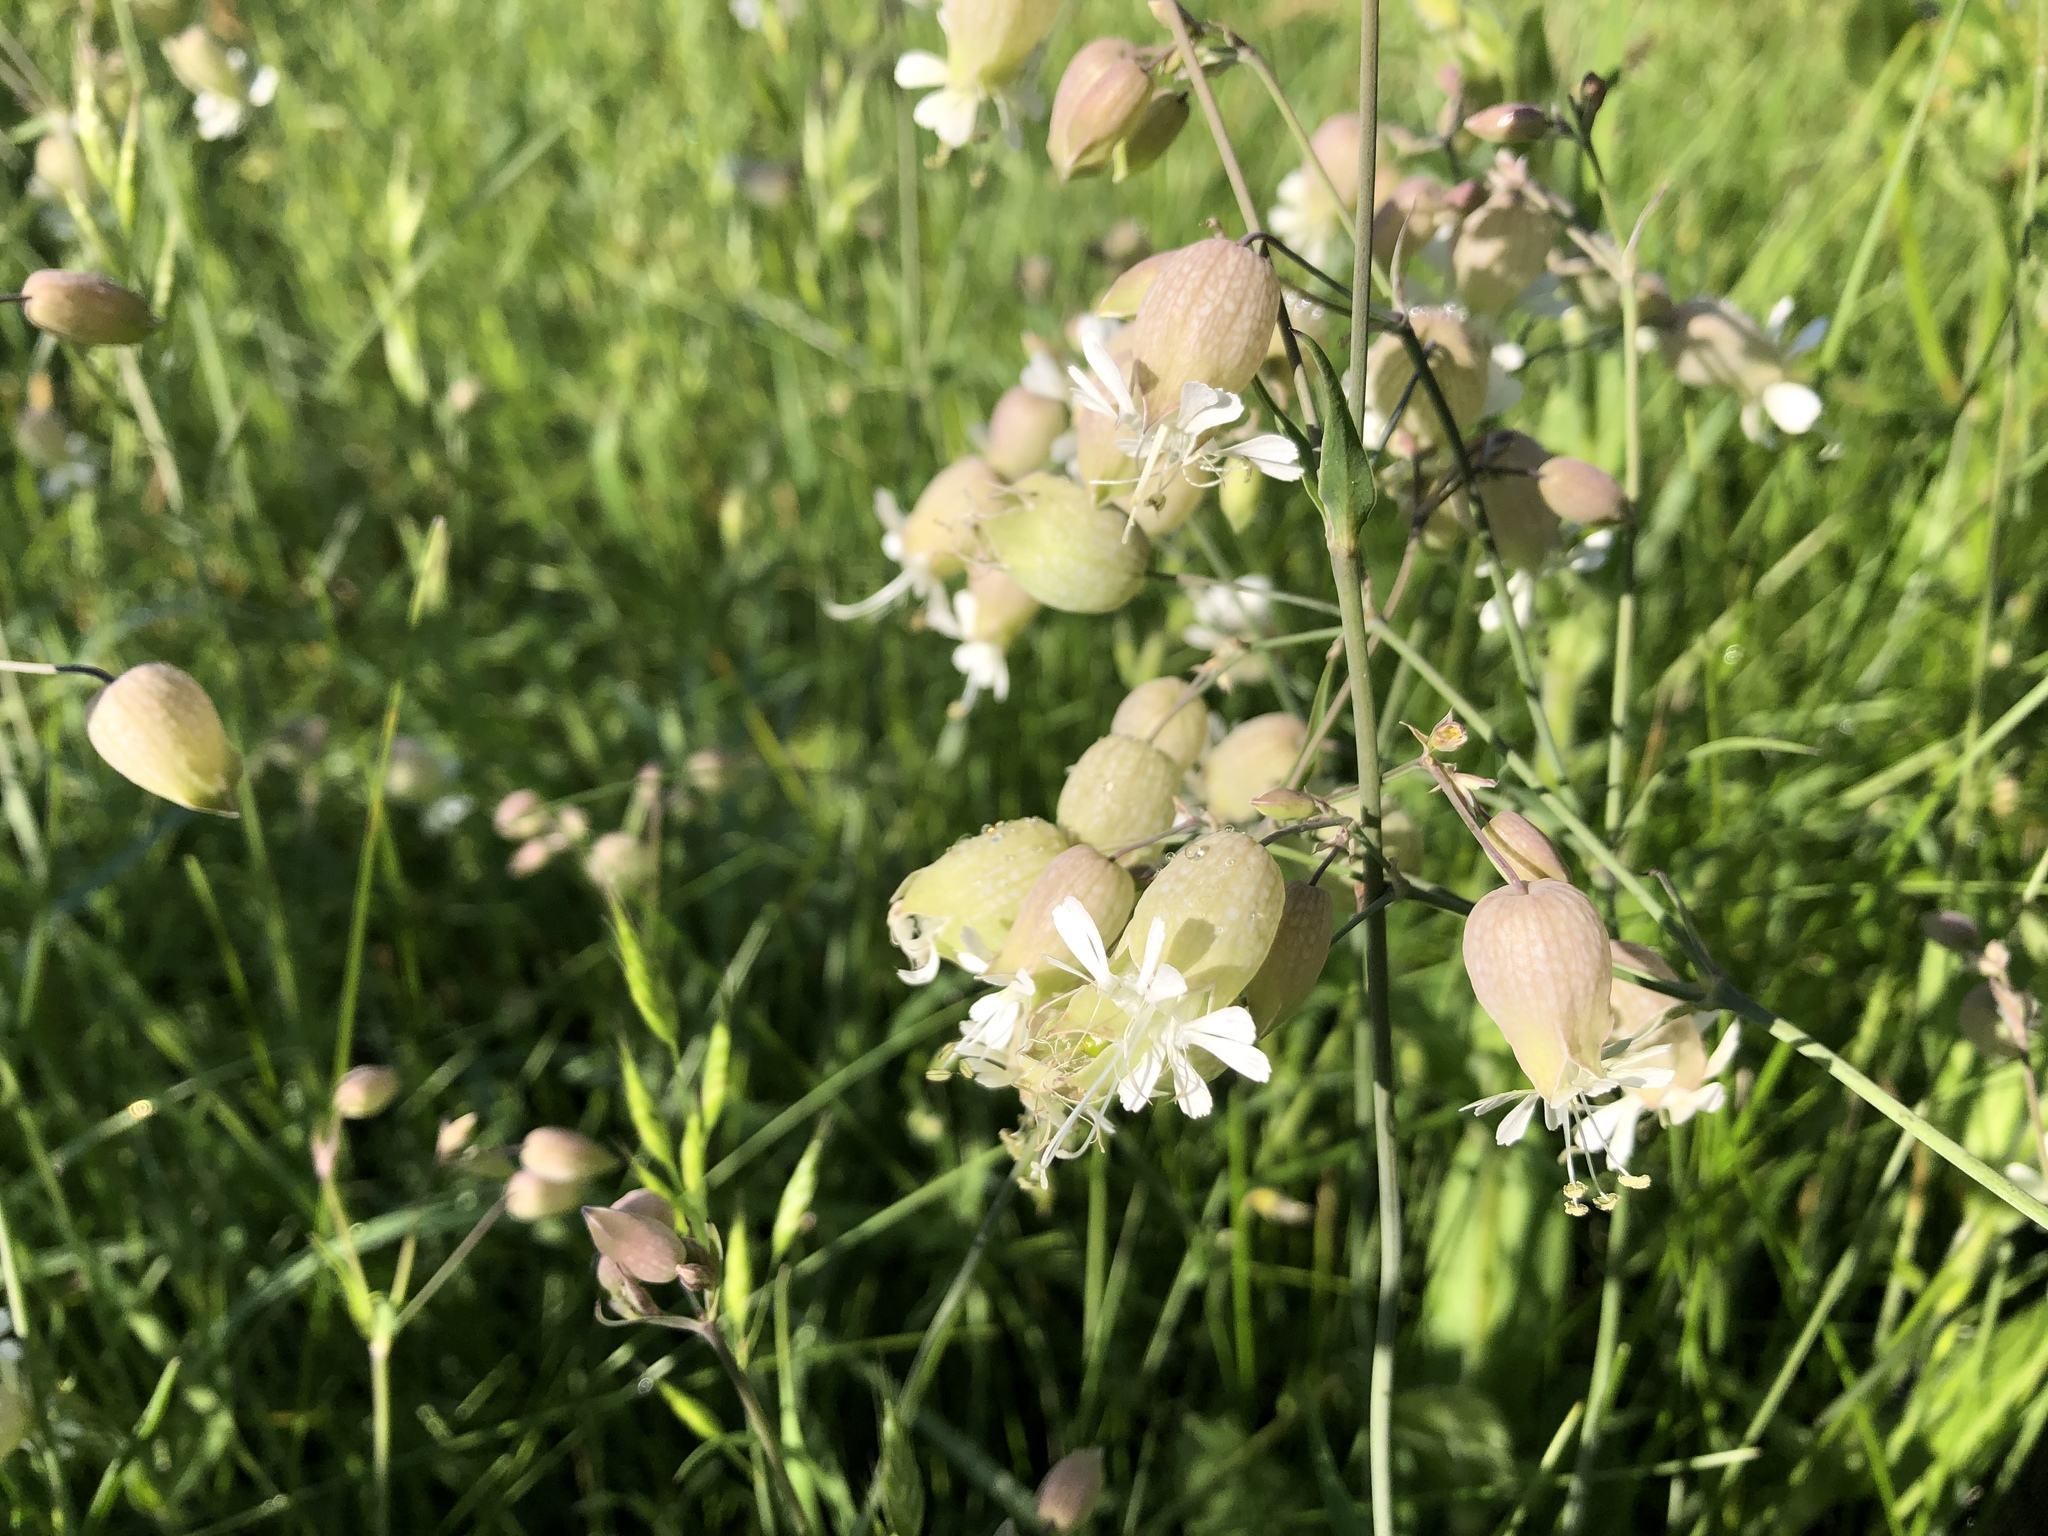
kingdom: Plantae
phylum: Tracheophyta
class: Magnoliopsida
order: Caryophyllales
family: Caryophyllaceae
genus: Silene
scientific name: Silene vulgaris
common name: Bladder campion
